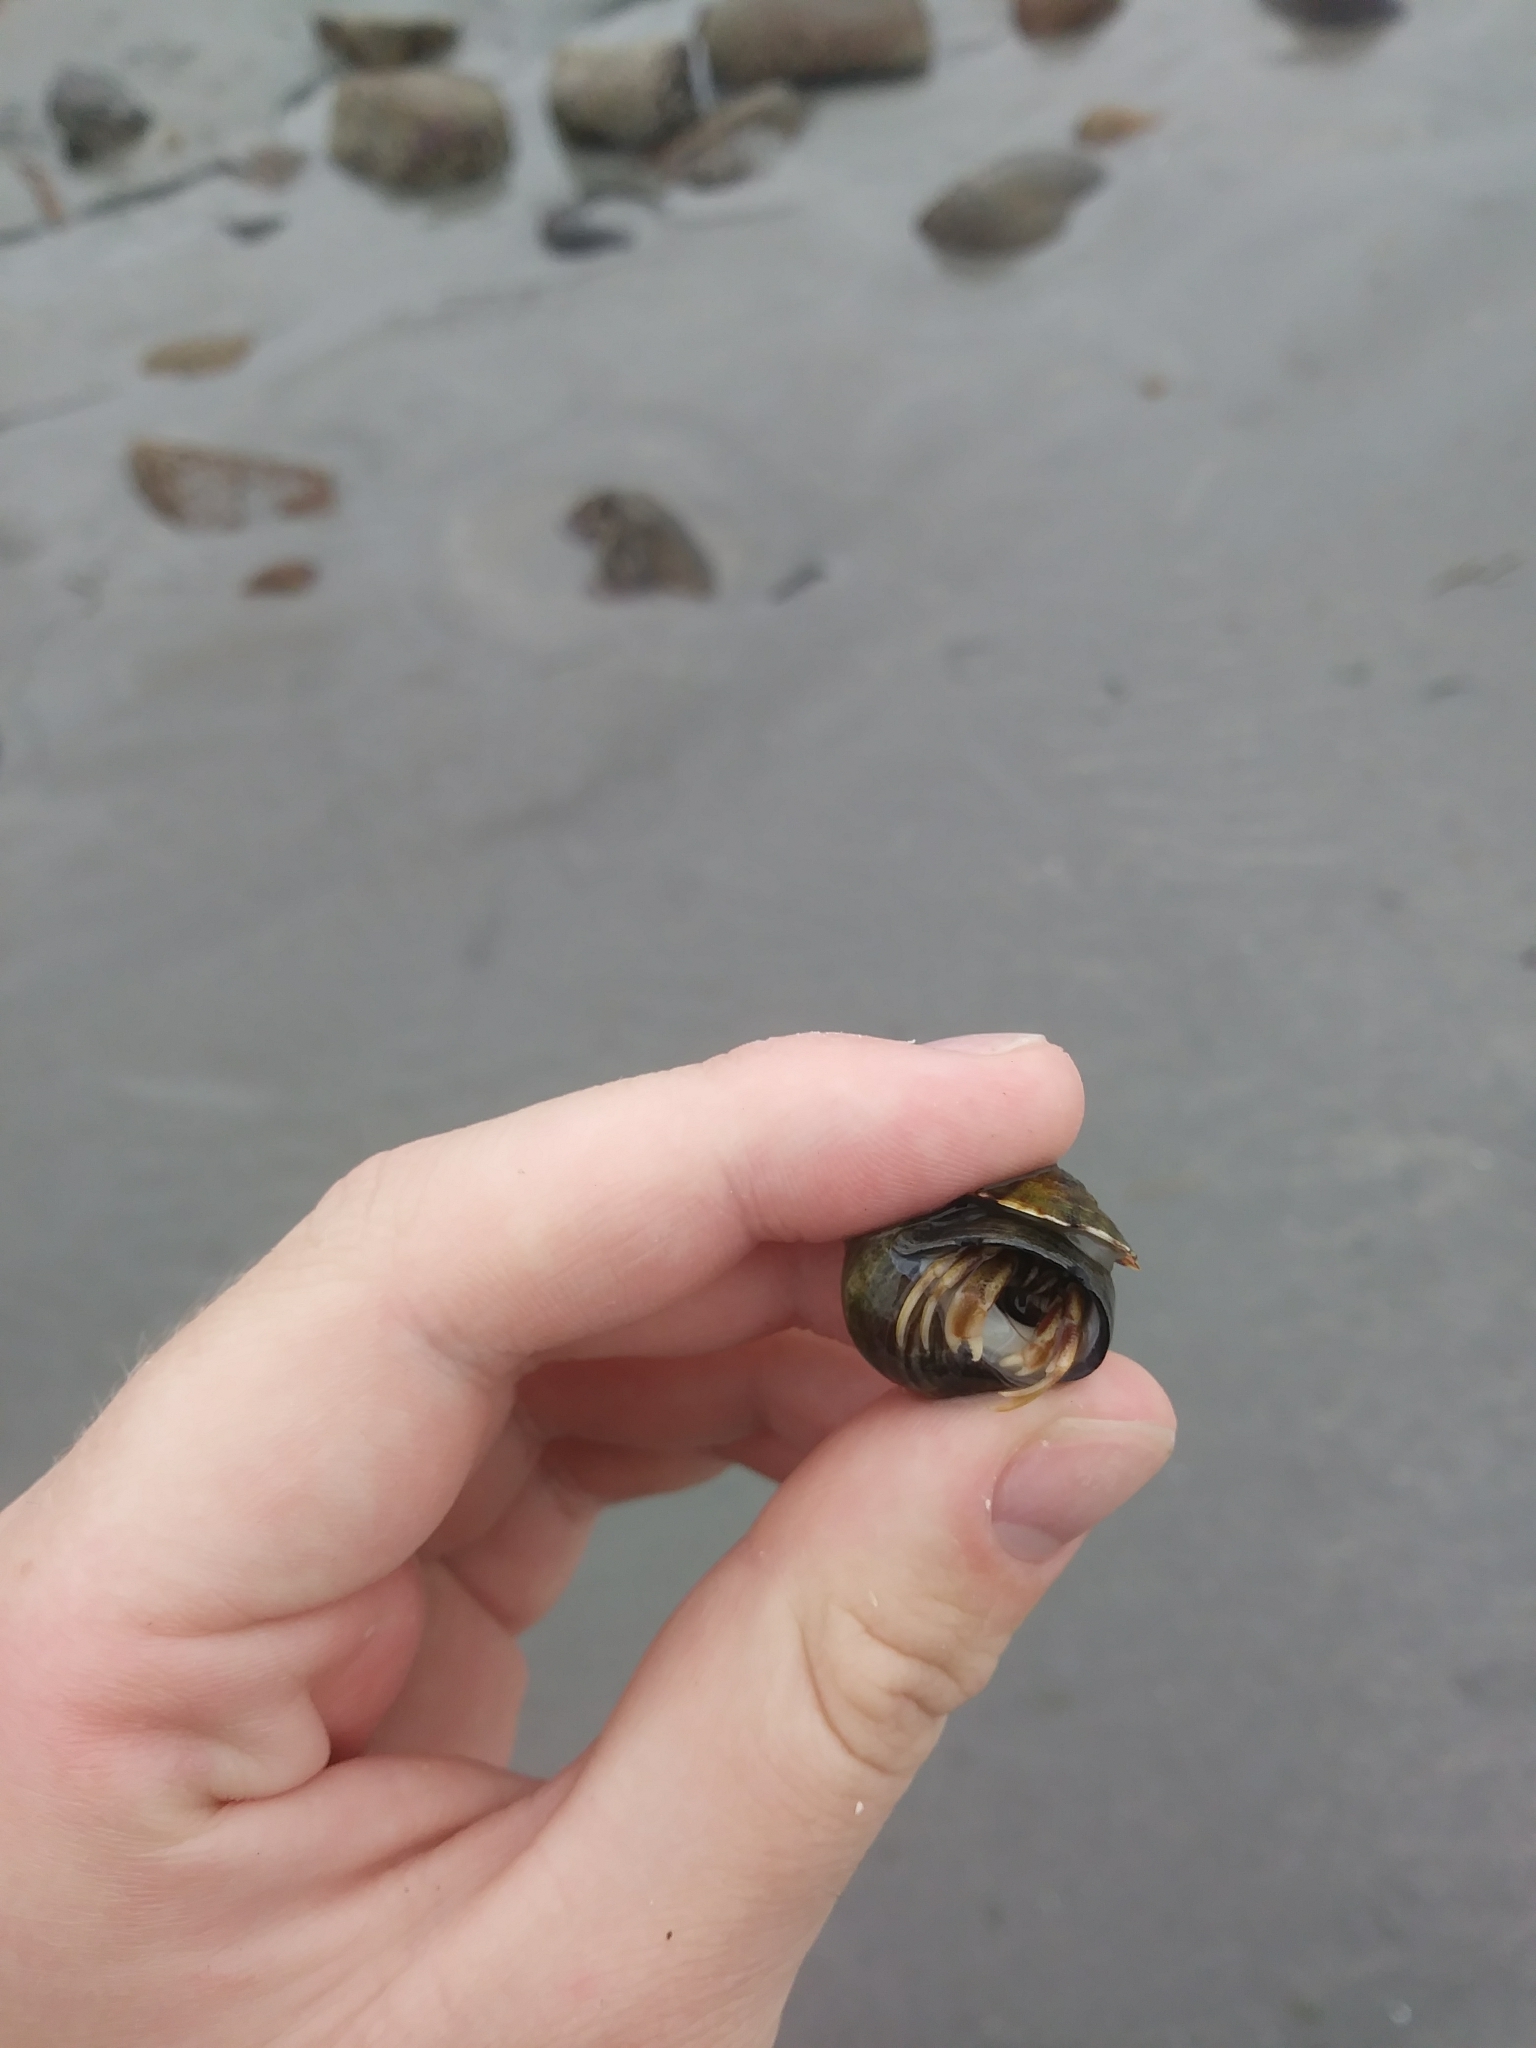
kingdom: Animalia
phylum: Arthropoda
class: Malacostraca
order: Decapoda
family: Paguridae
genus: Pagurus
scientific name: Pagurus longicarpus
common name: Long-armed hermit crab
